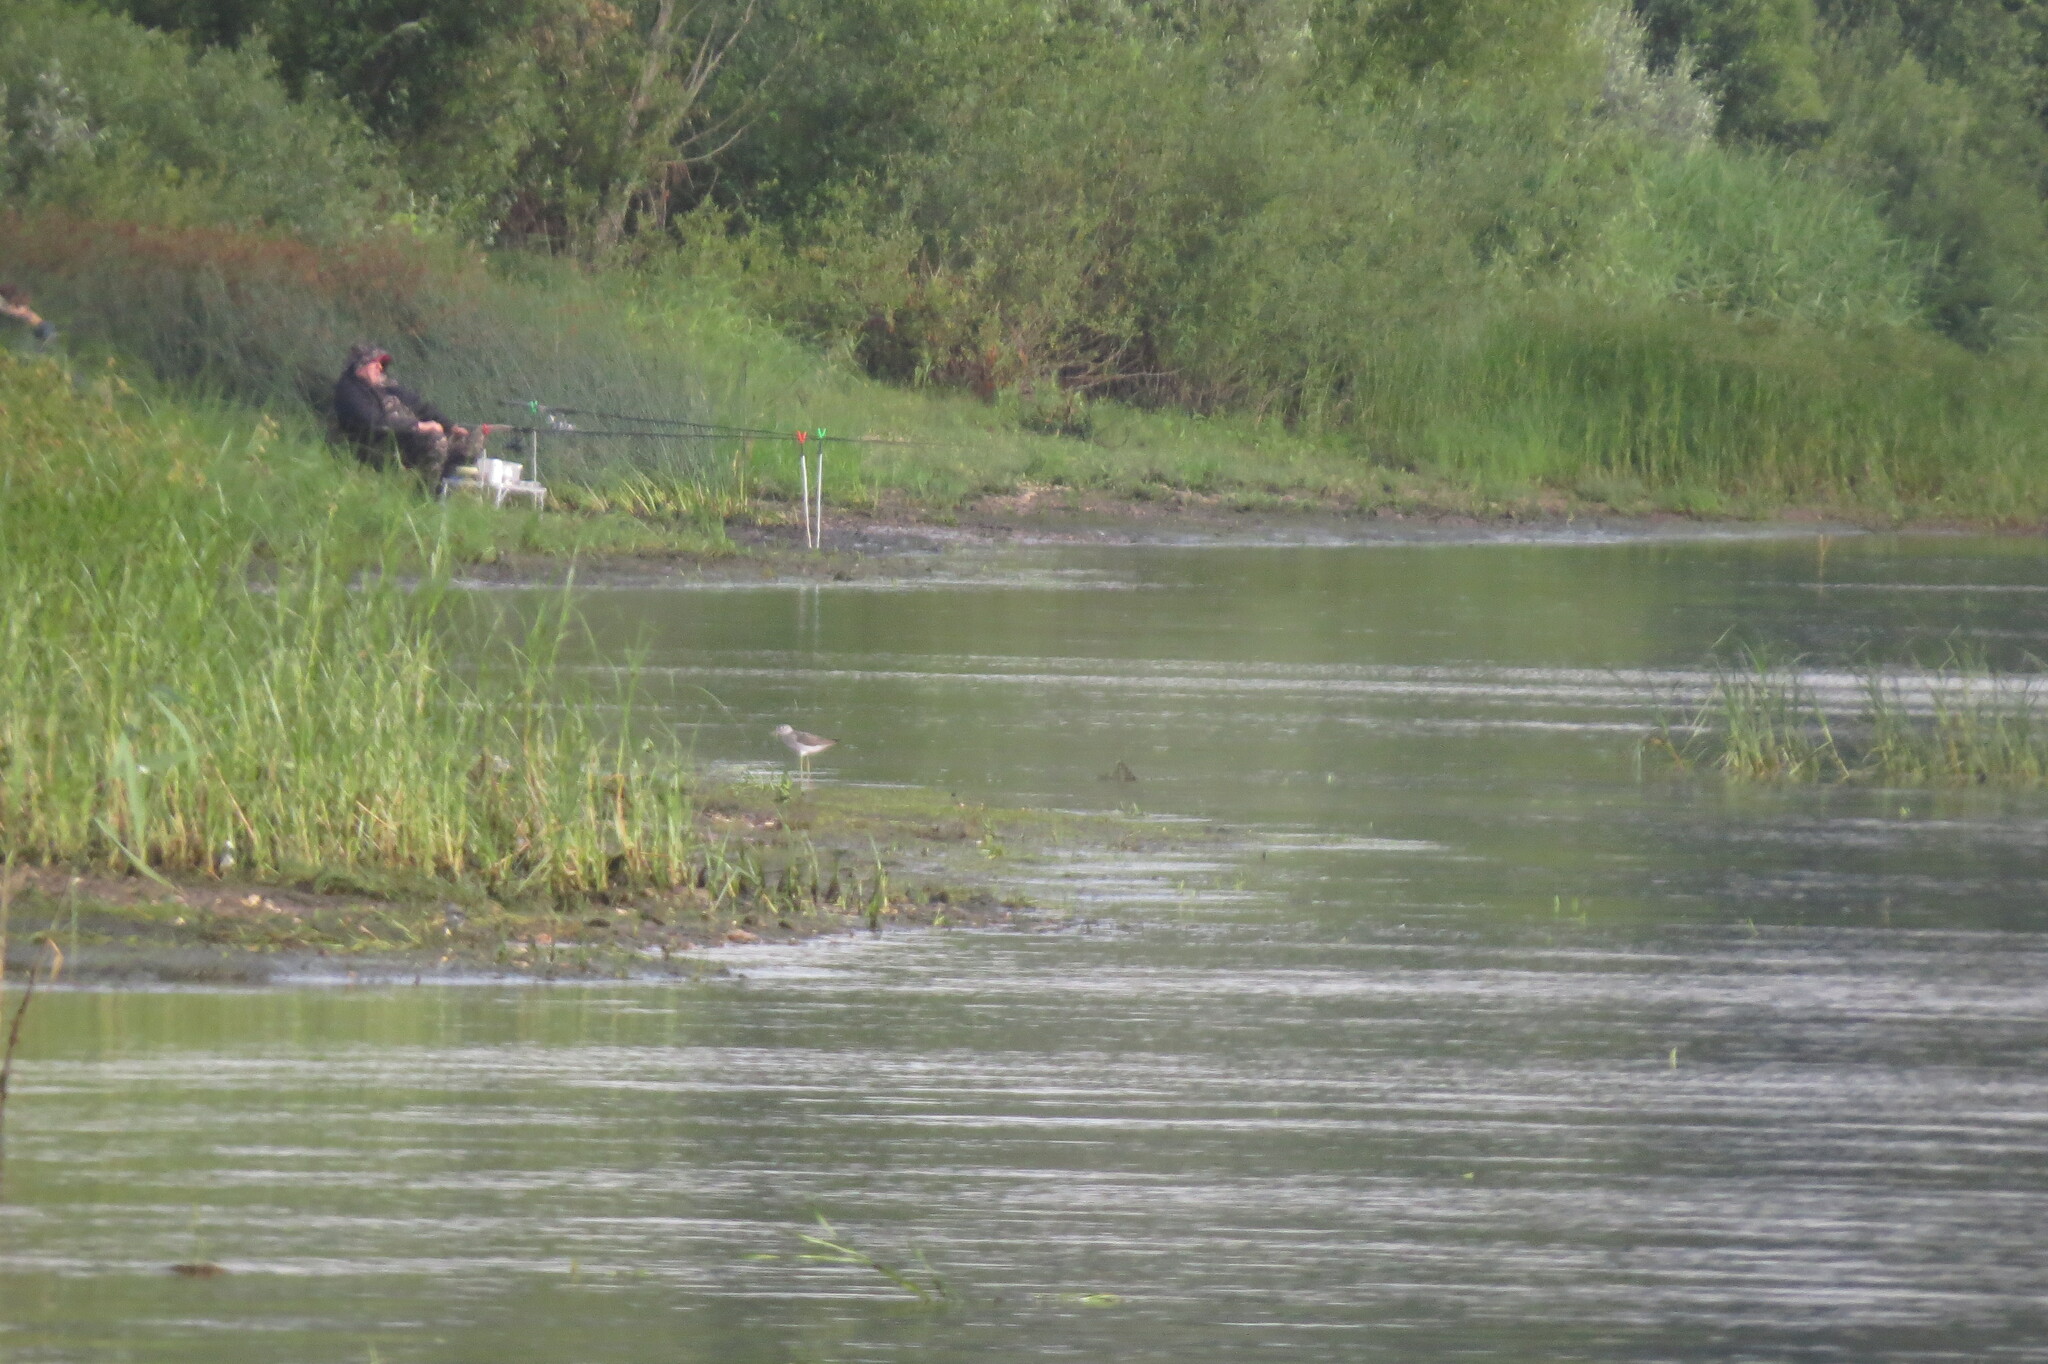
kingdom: Animalia
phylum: Chordata
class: Aves
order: Charadriiformes
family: Scolopacidae
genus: Limosa
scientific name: Limosa limosa
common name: Black-tailed godwit
